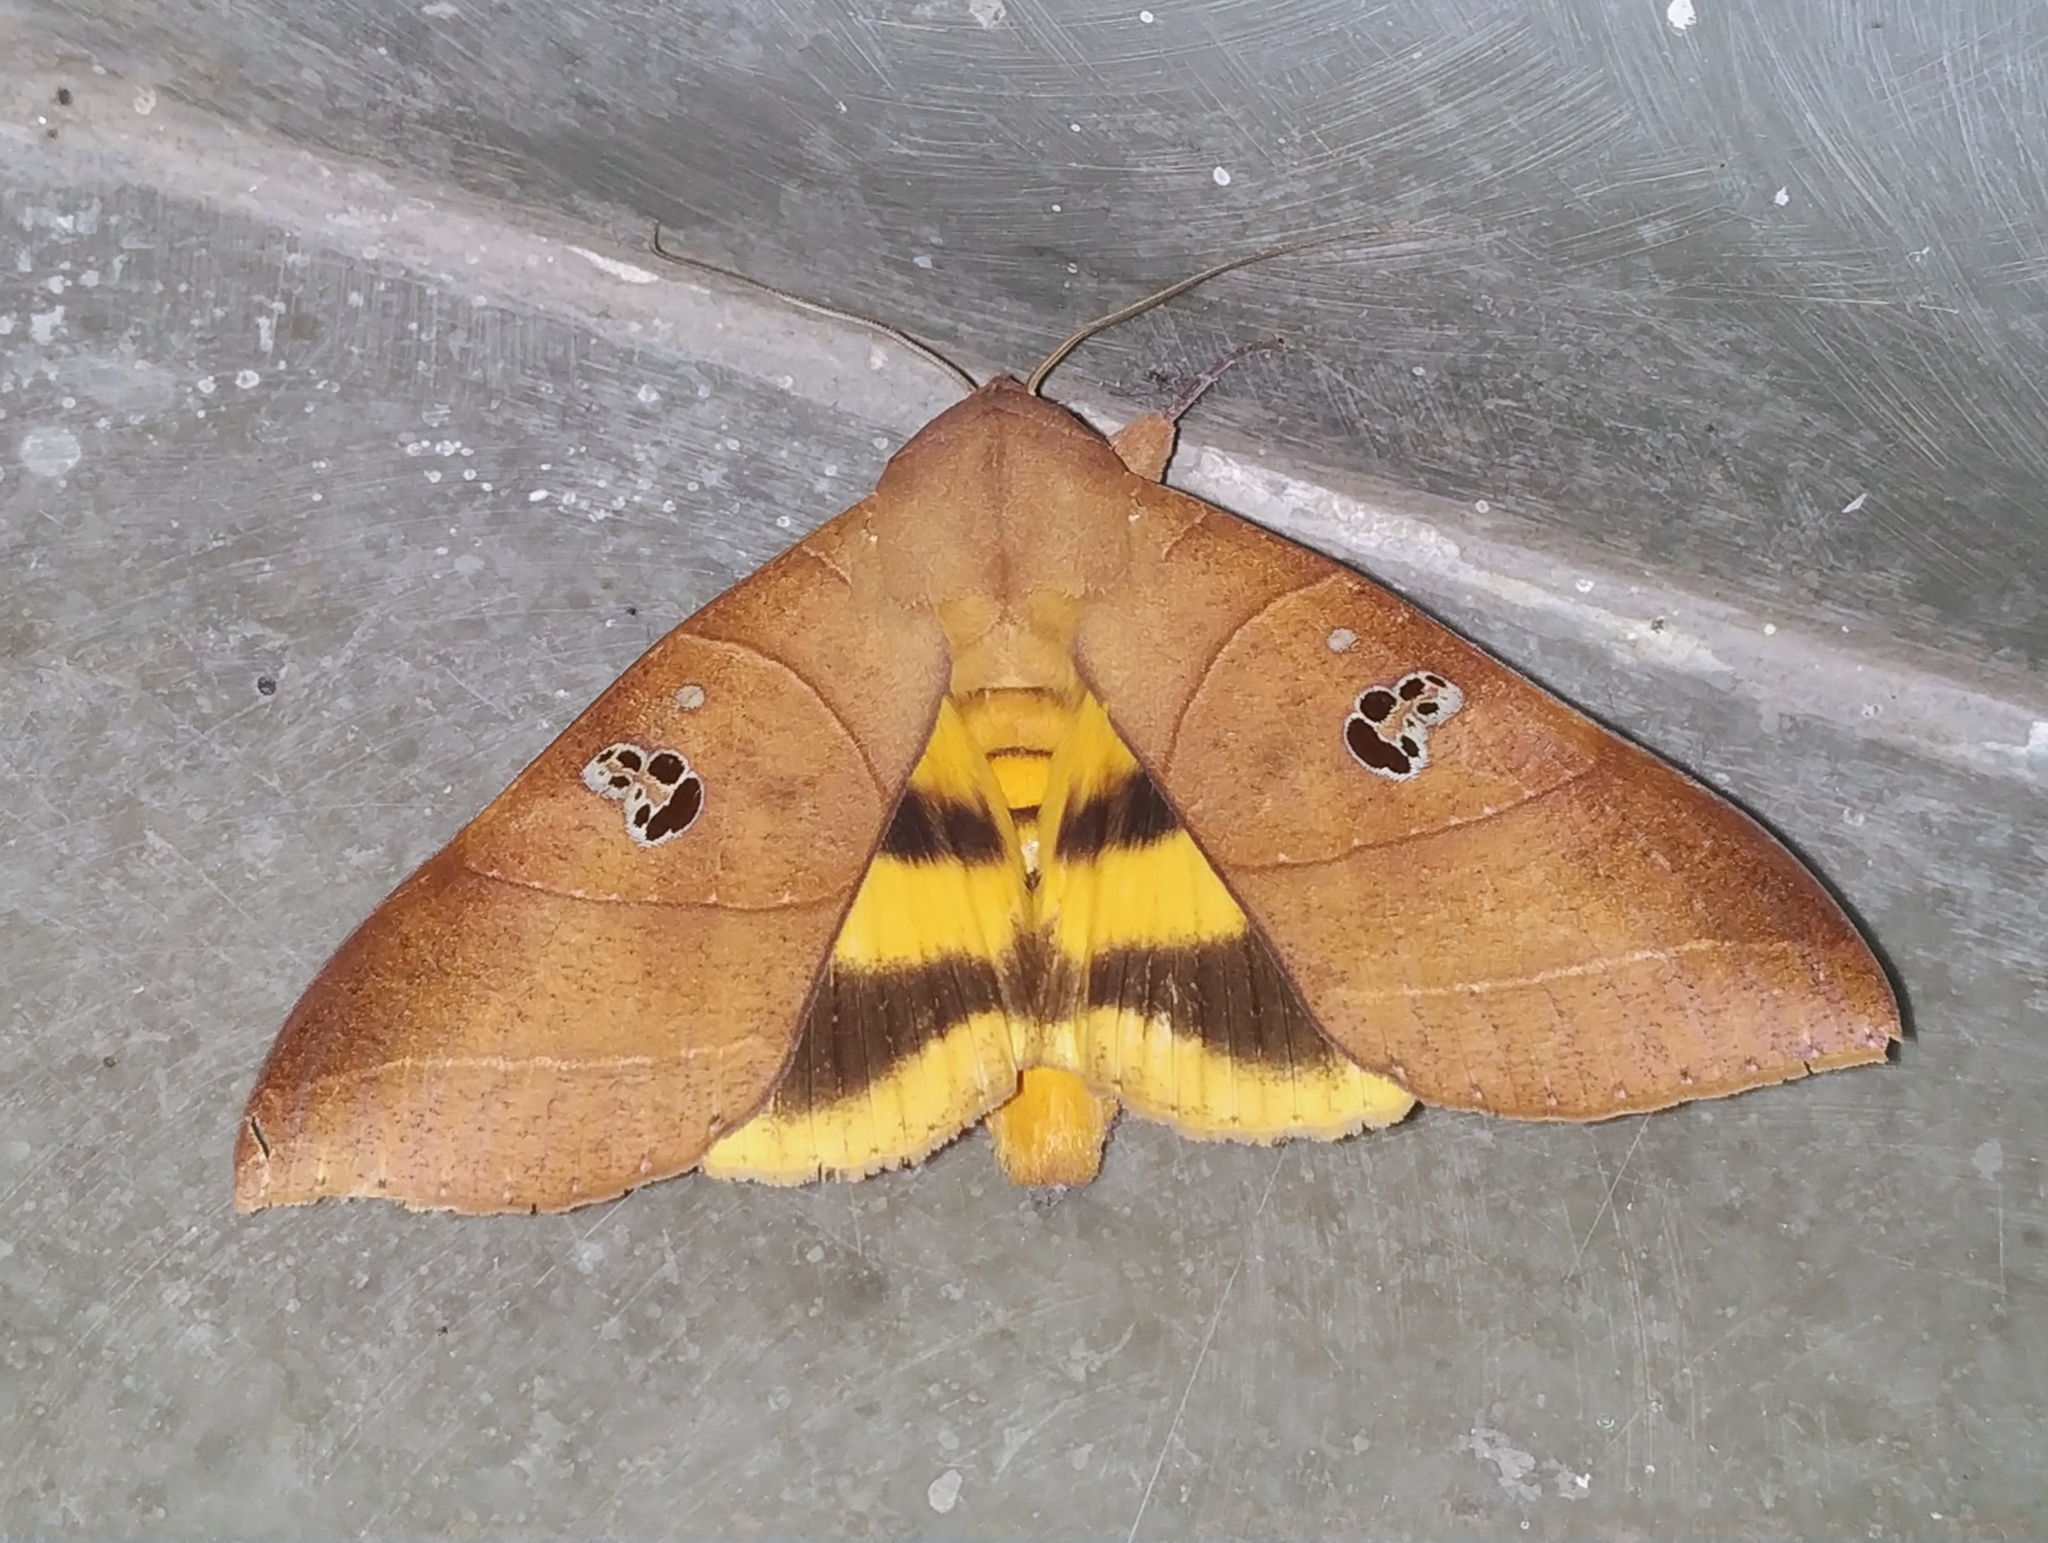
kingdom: Animalia
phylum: Arthropoda
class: Insecta
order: Lepidoptera
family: Erebidae
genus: Thyas
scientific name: Thyas coronata
